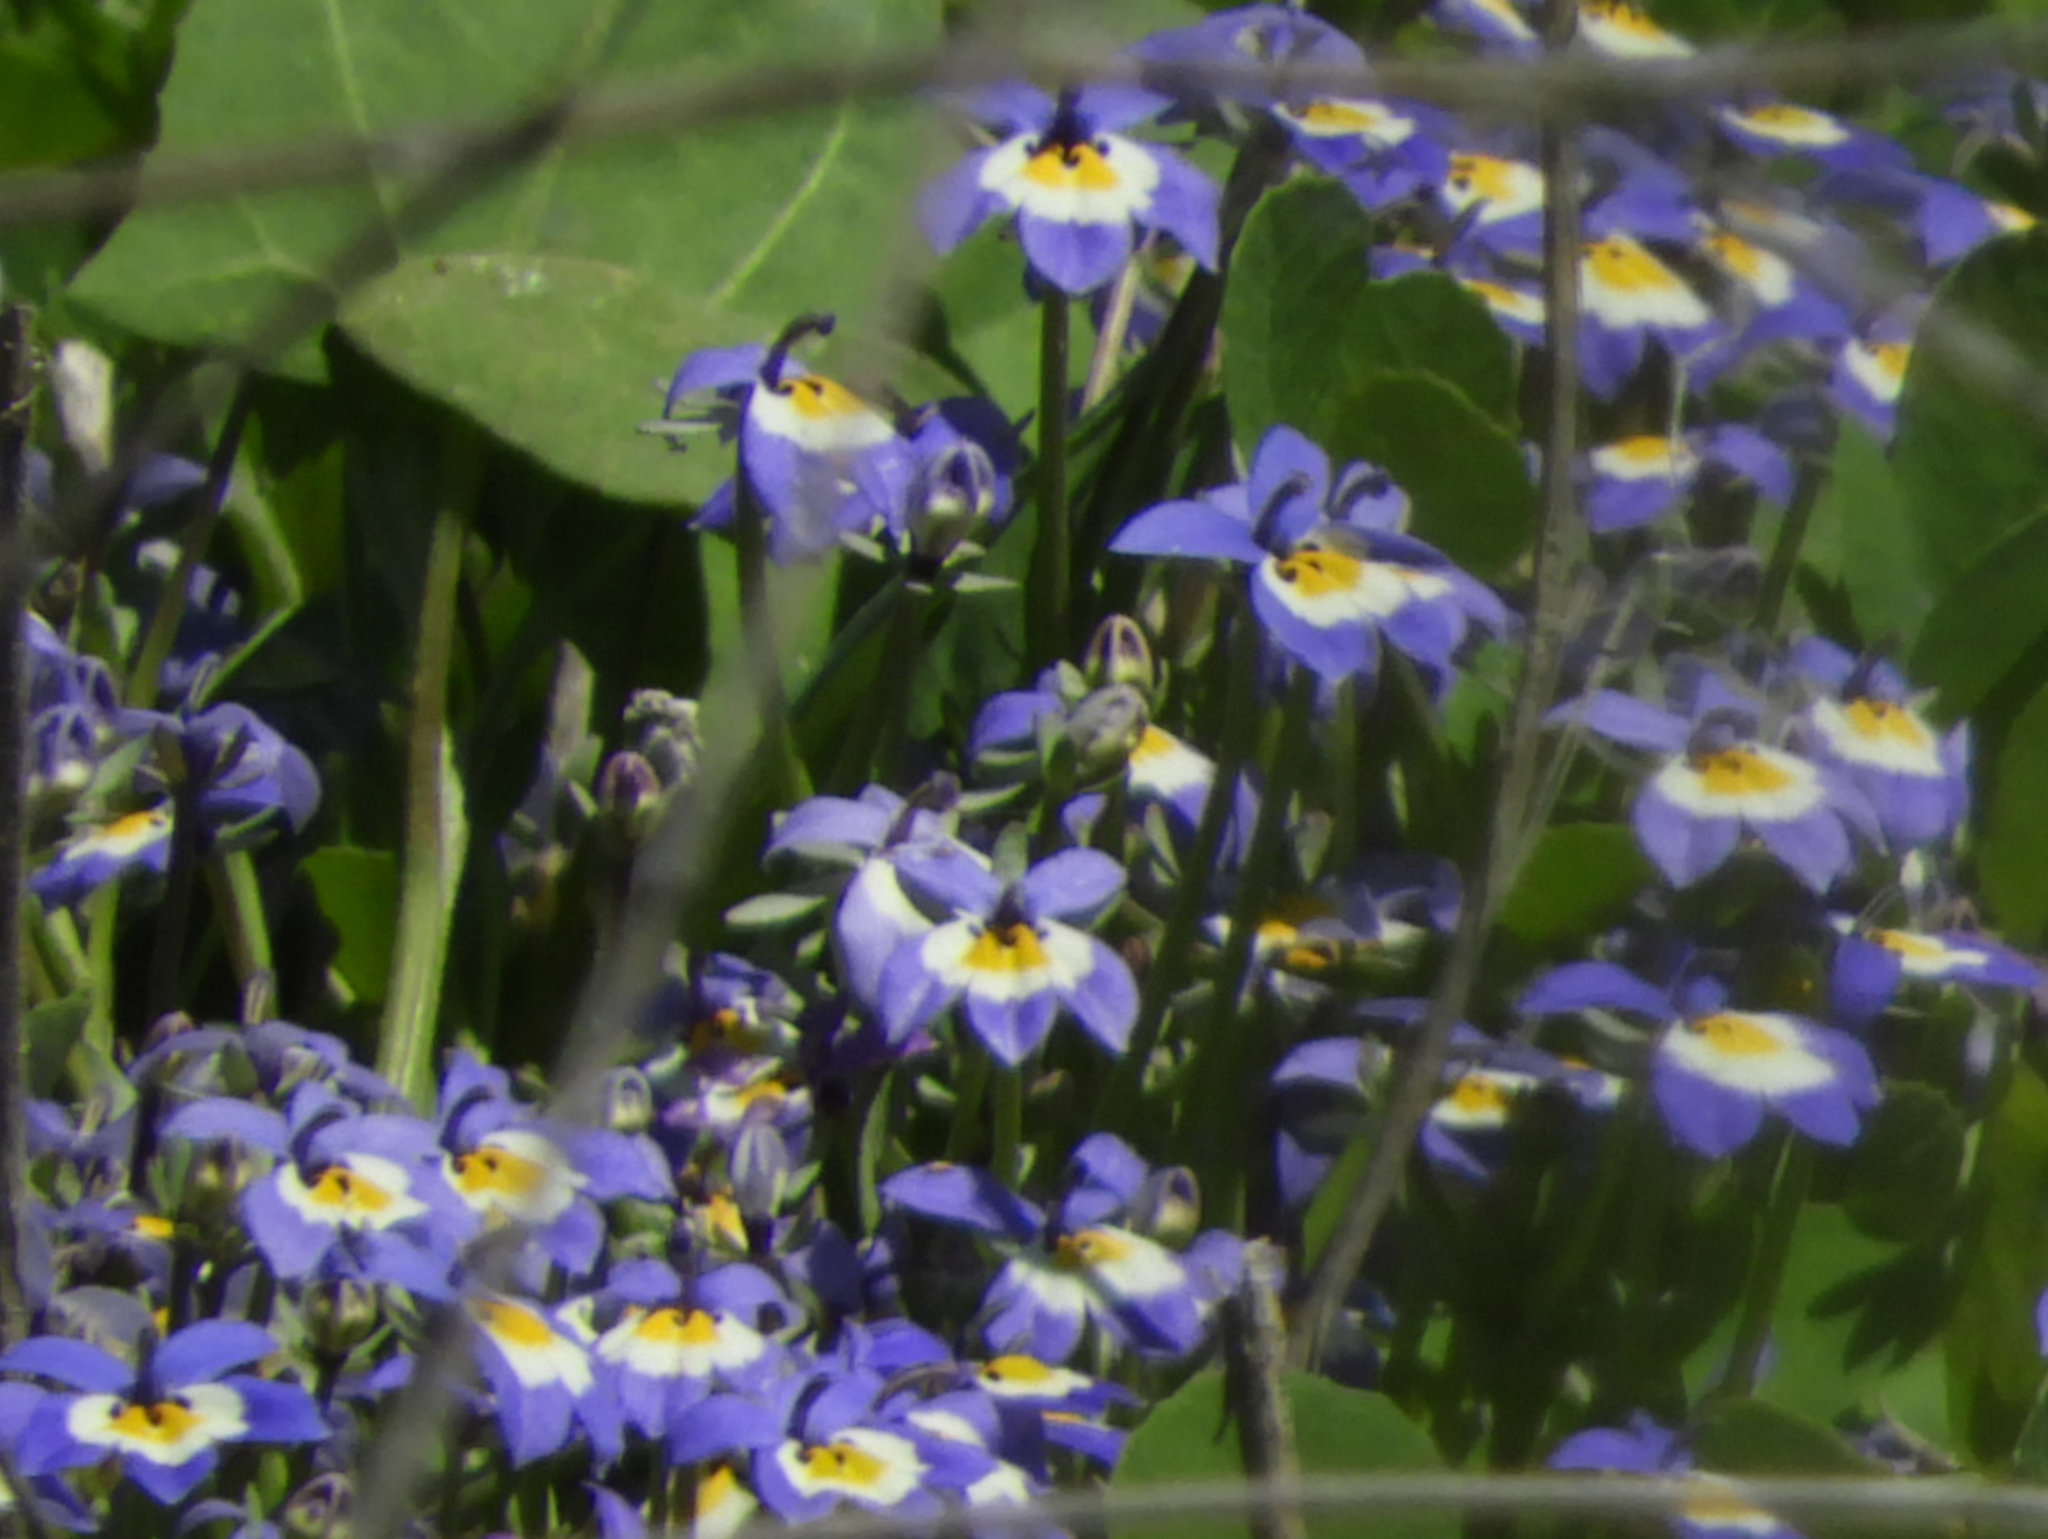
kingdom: Plantae
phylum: Tracheophyta
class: Magnoliopsida
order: Asterales
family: Campanulaceae
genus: Downingia
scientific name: Downingia pulchella
